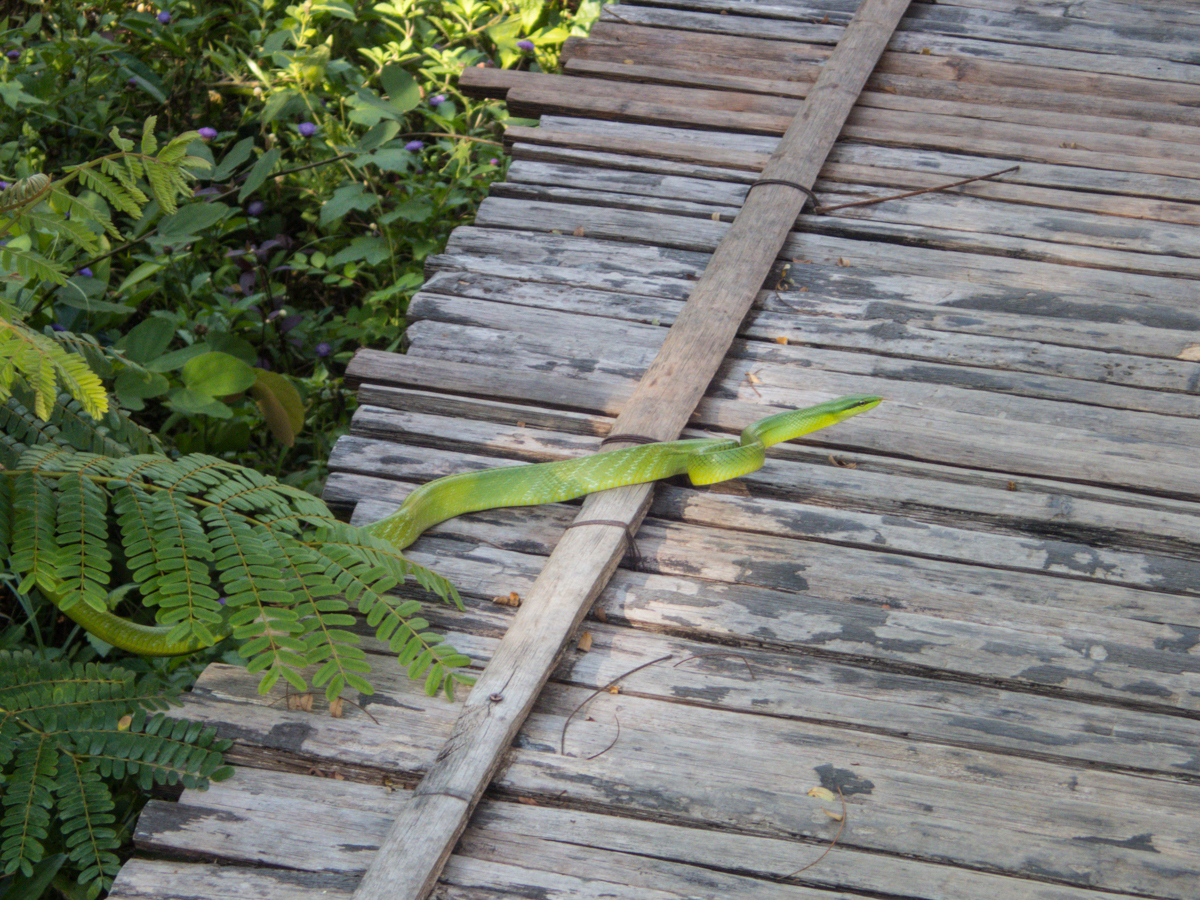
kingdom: Animalia
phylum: Chordata
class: Squamata
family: Colubridae
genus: Gonyosoma
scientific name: Gonyosoma oxycephalum
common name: Red-tailed racer
